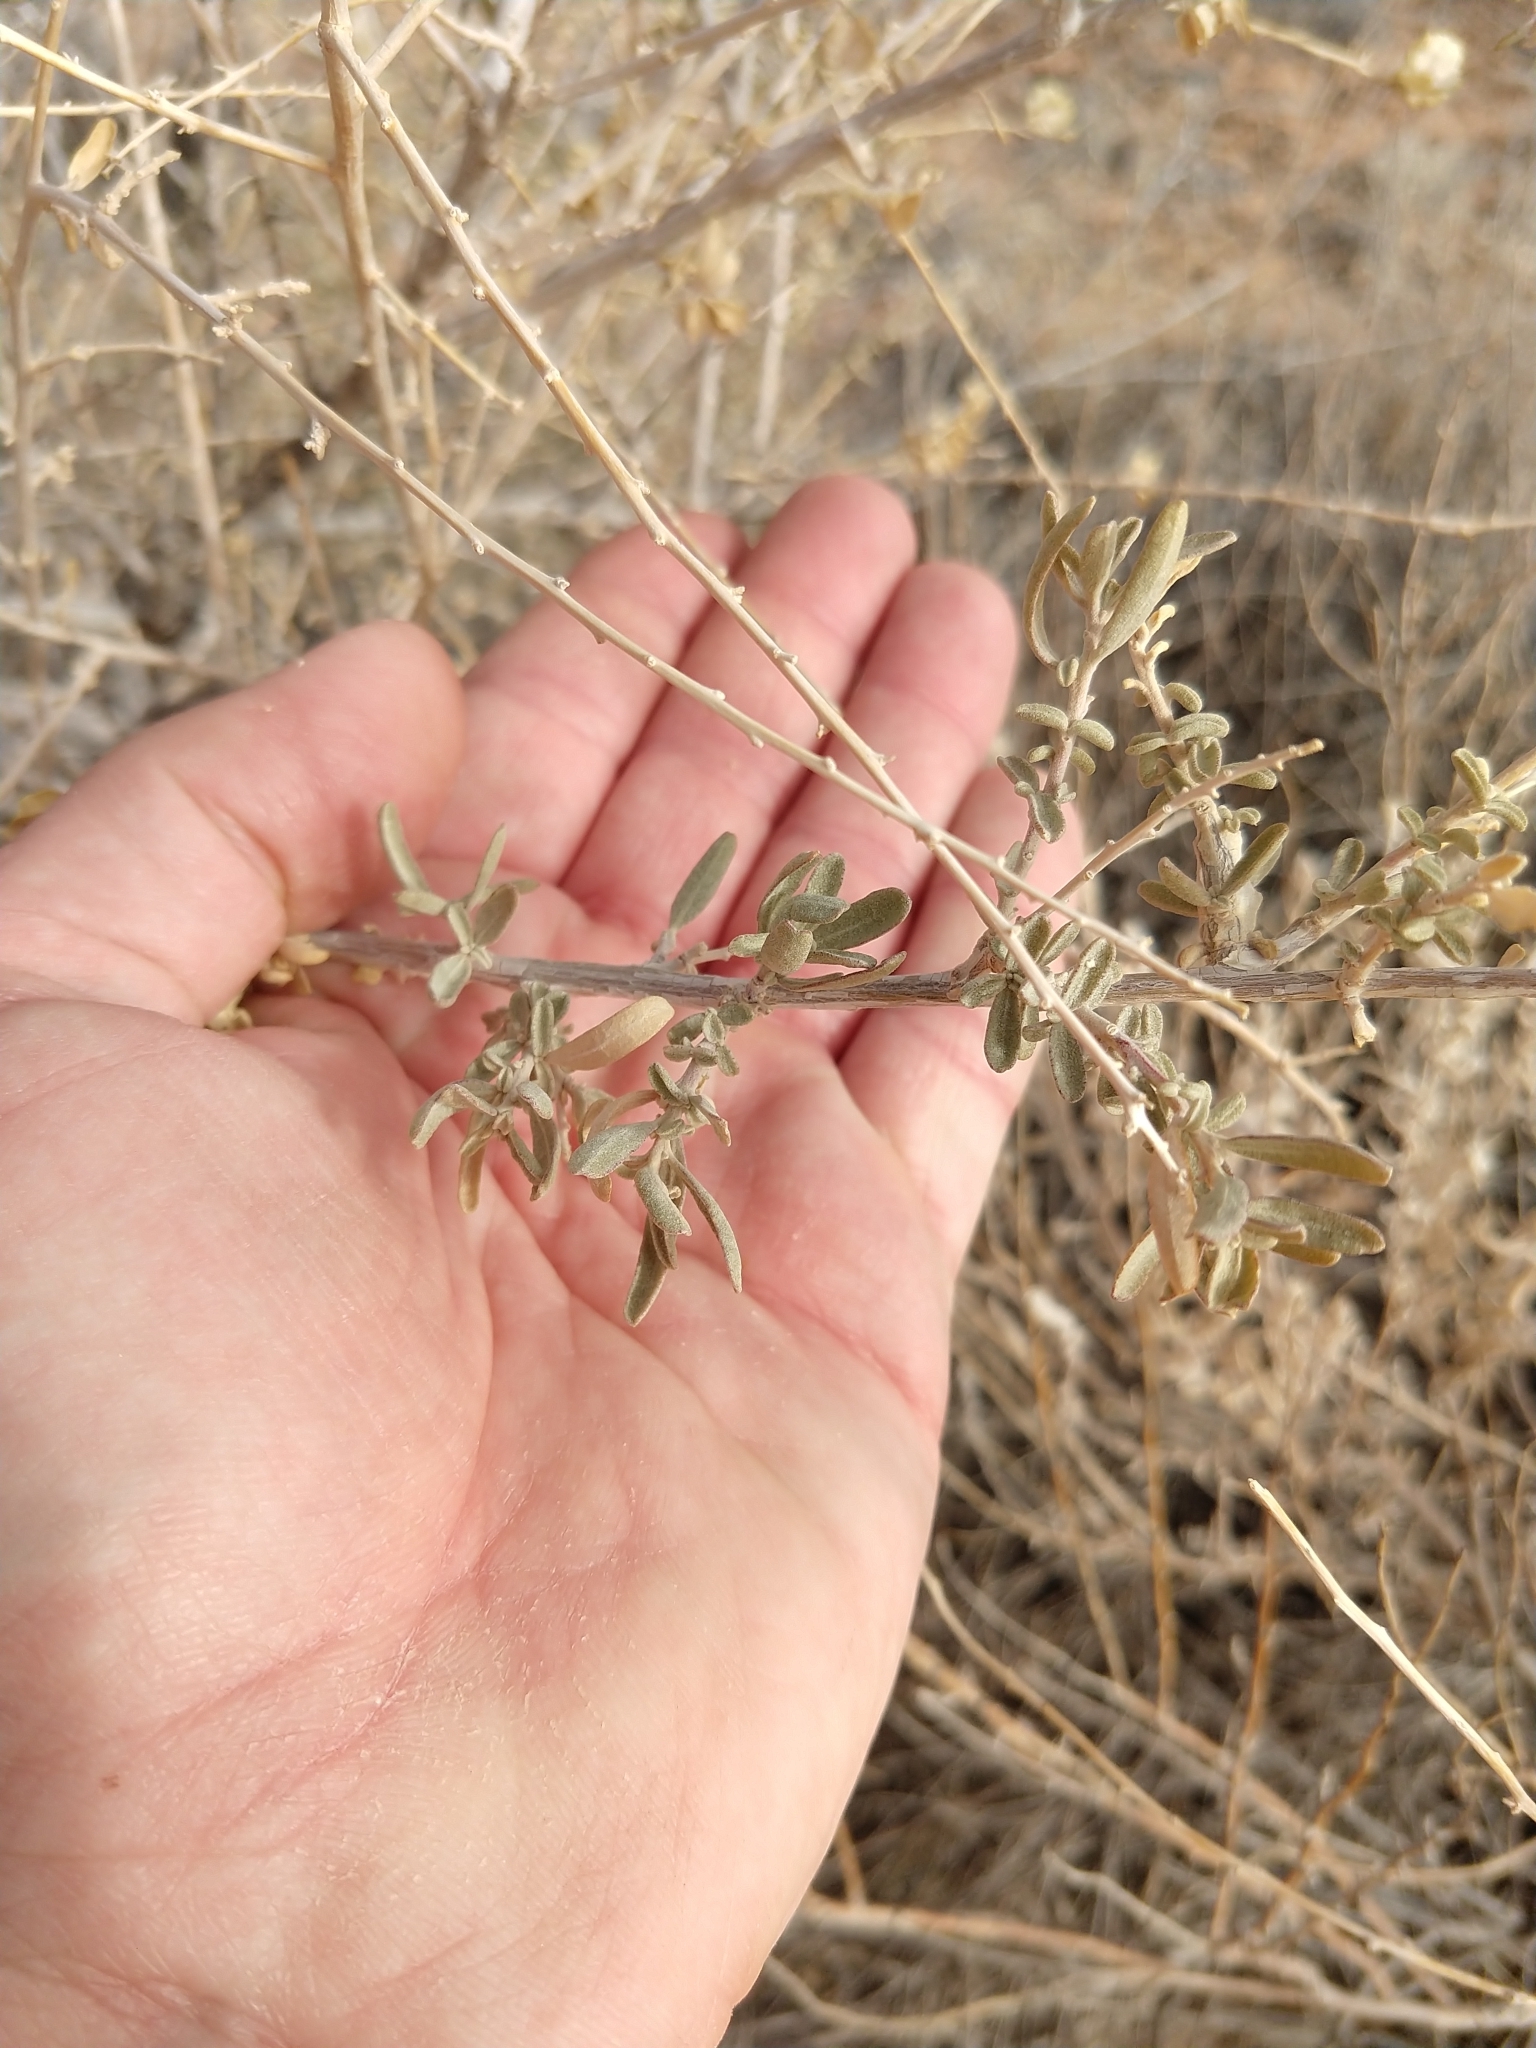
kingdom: Plantae
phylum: Tracheophyta
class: Magnoliopsida
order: Caryophyllales
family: Amaranthaceae
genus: Atriplex
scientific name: Atriplex canescens
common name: Four-wing saltbush
